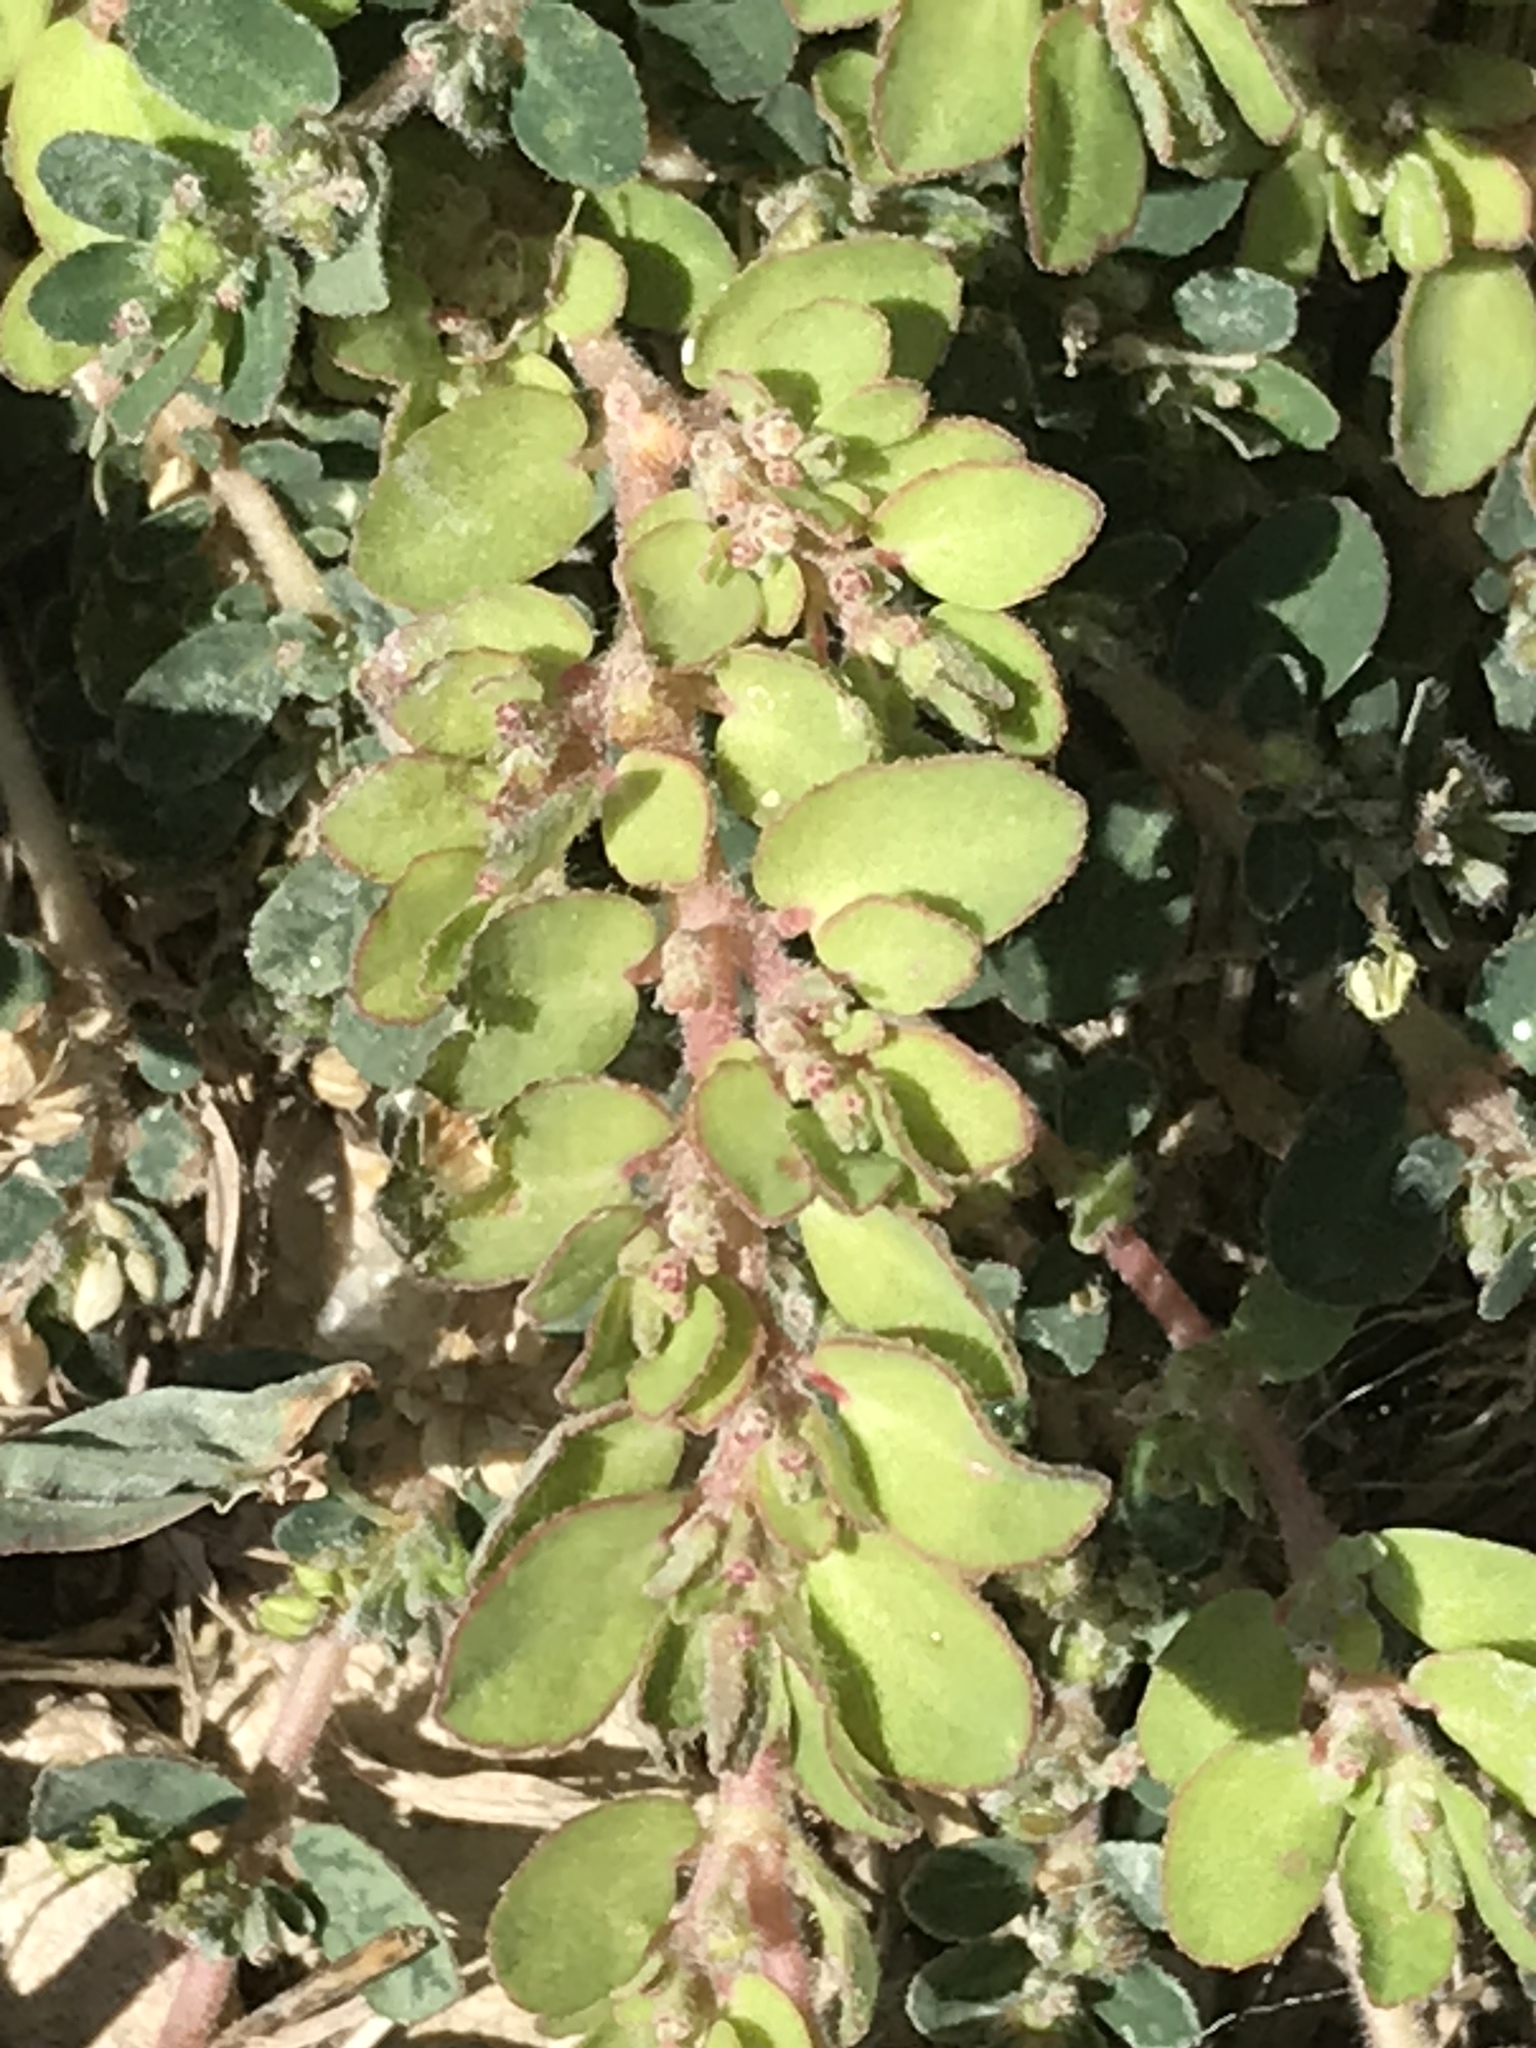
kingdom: Plantae
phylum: Tracheophyta
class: Magnoliopsida
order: Malpighiales
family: Euphorbiaceae
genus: Euphorbia
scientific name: Euphorbia prostrata
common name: Prostrate sandmat
